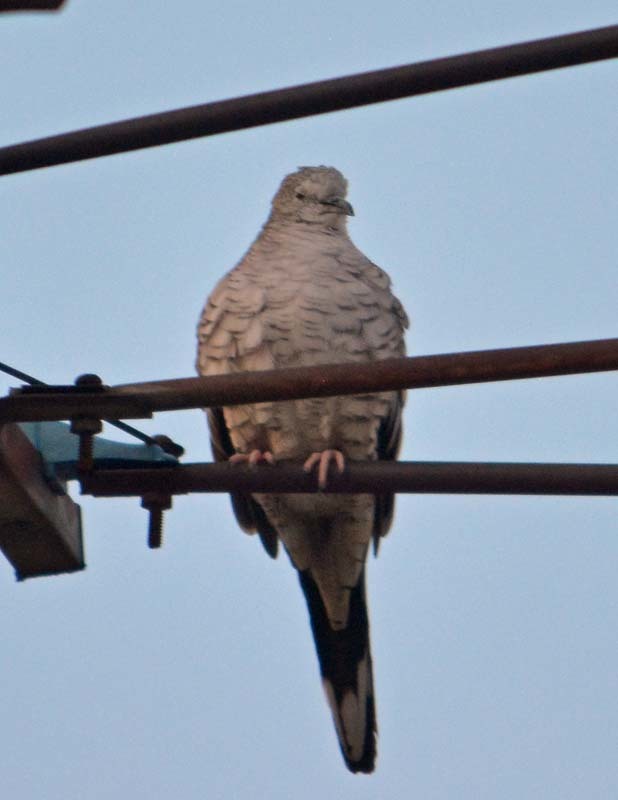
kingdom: Animalia
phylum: Chordata
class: Aves
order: Columbiformes
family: Columbidae
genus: Columbina
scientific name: Columbina inca
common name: Inca dove
